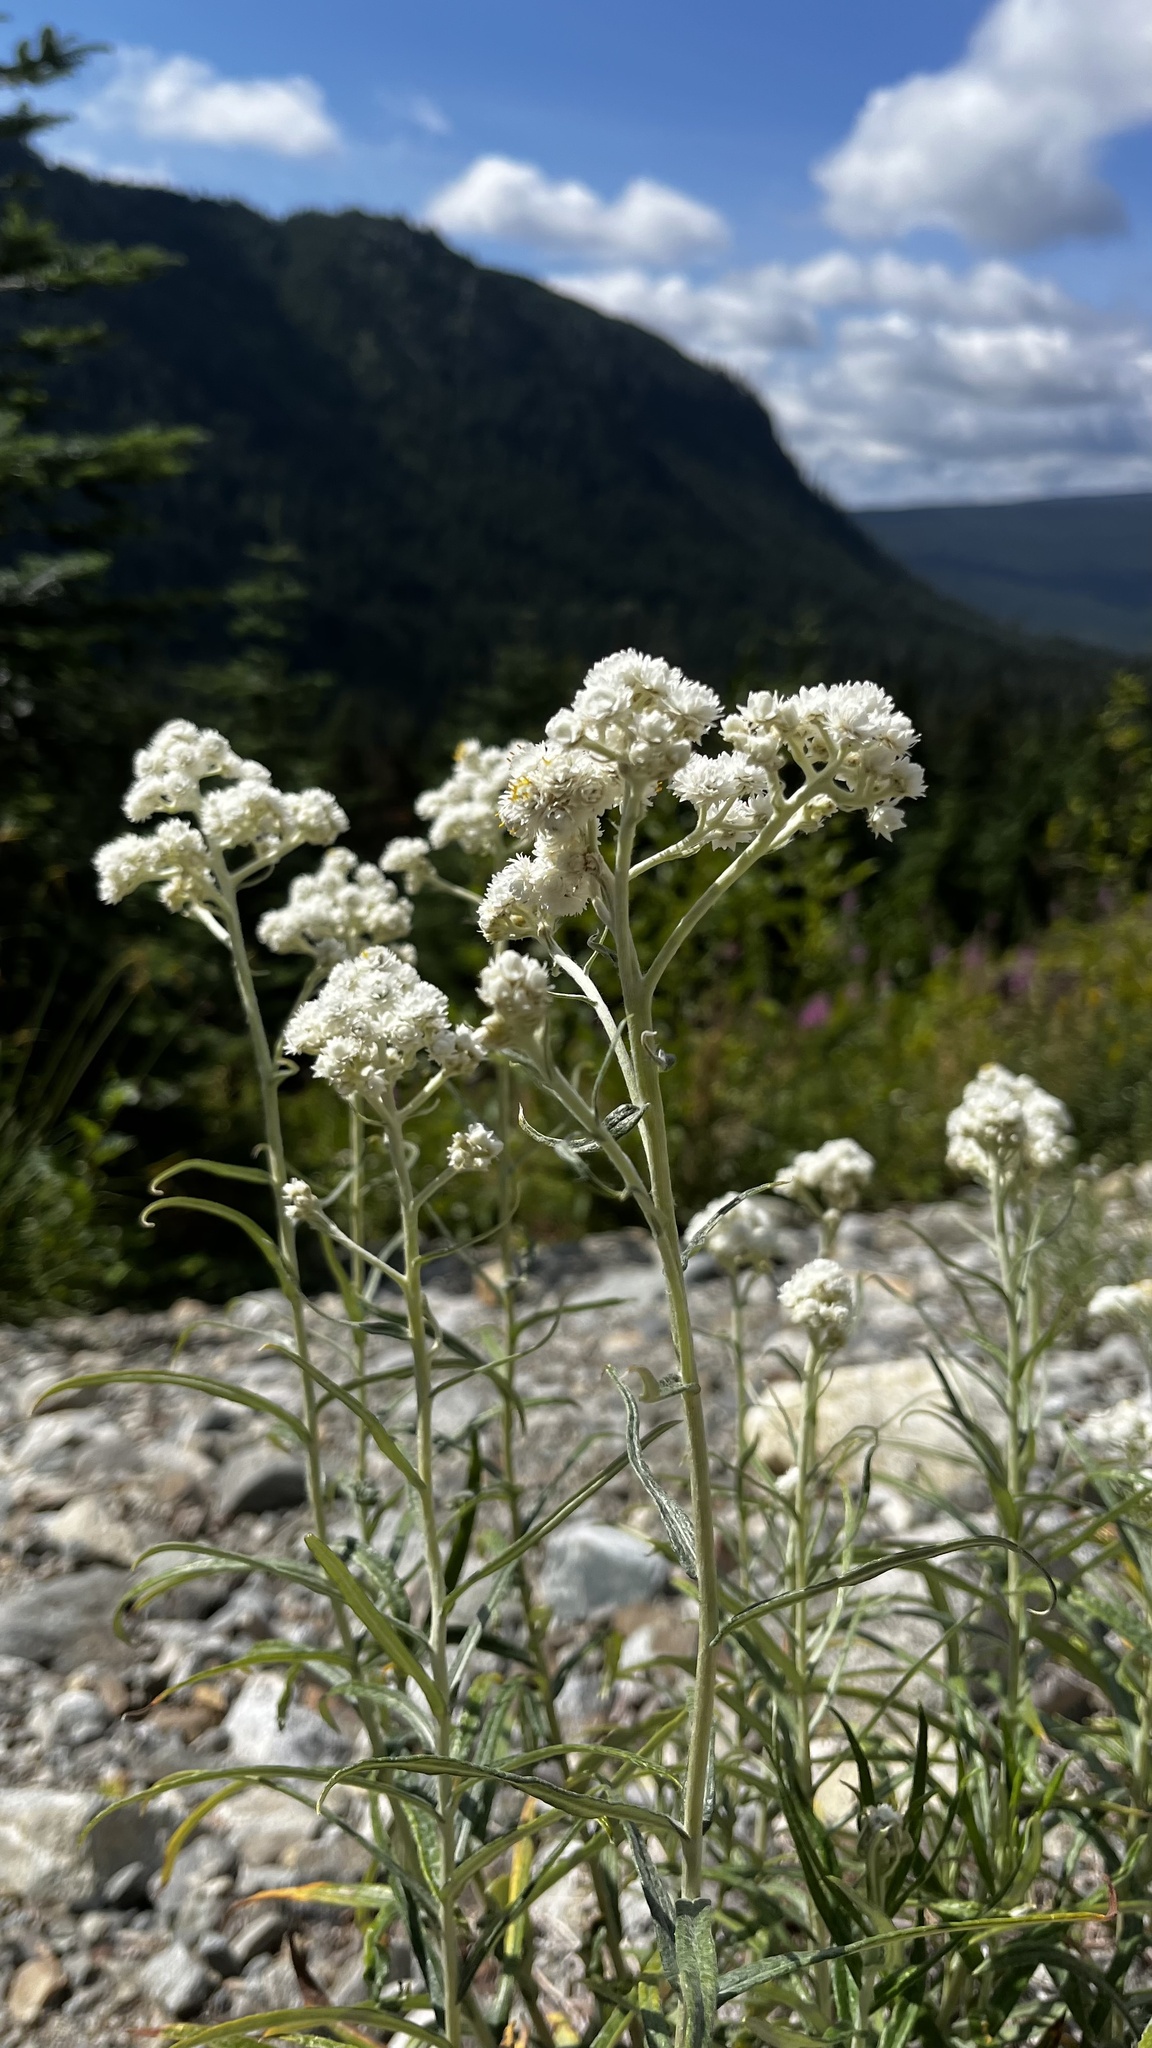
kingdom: Plantae
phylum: Tracheophyta
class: Magnoliopsida
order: Asterales
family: Asteraceae
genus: Anaphalis
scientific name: Anaphalis margaritacea
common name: Pearly everlasting
